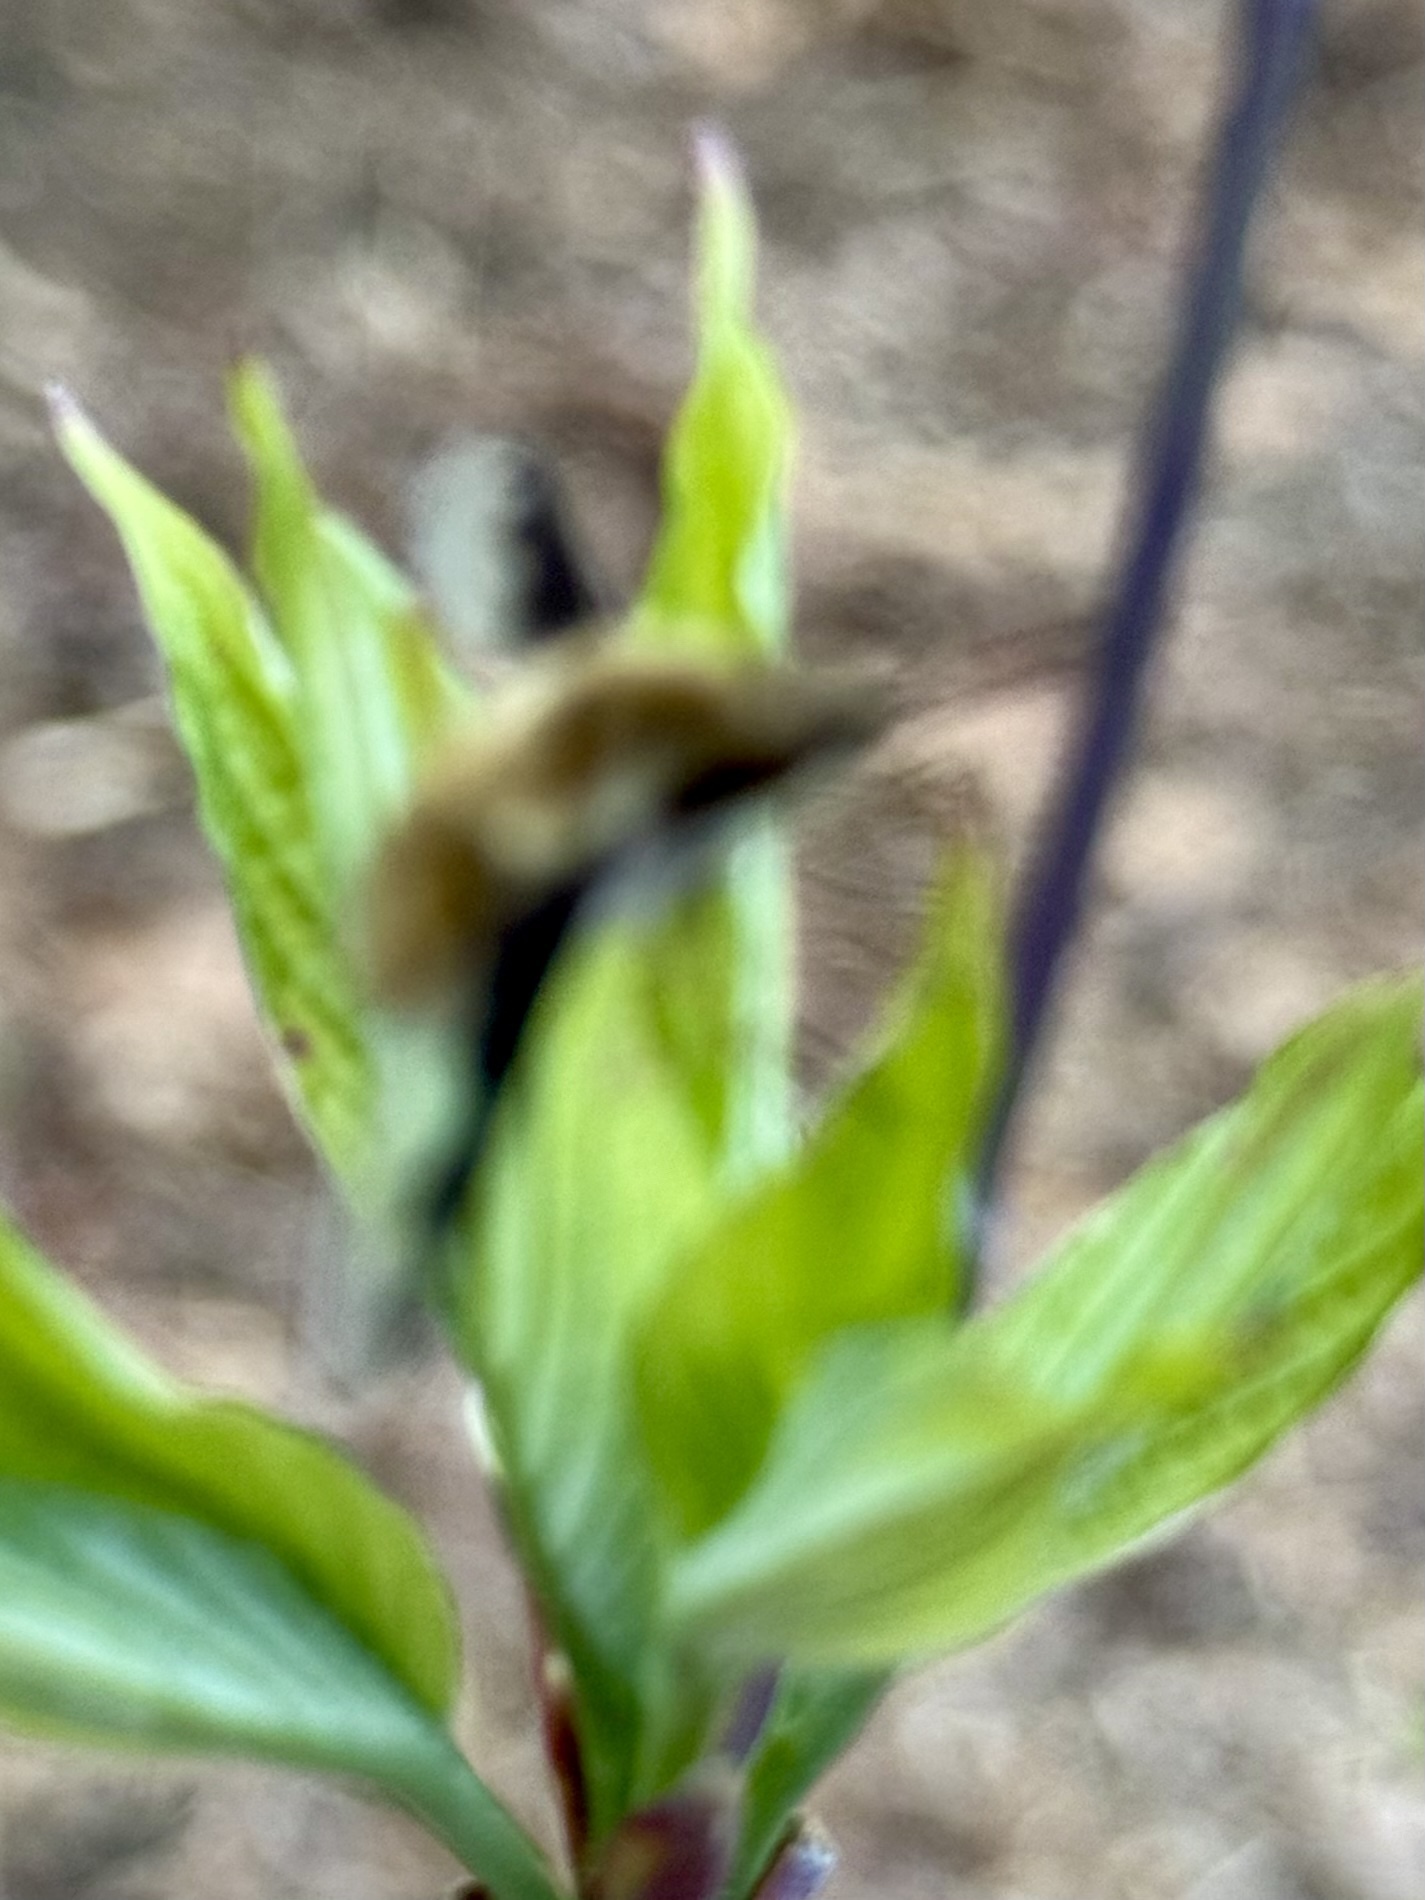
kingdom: Animalia
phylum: Arthropoda
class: Insecta
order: Diptera
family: Bombyliidae
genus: Bombylius
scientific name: Bombylius major
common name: Bee fly
